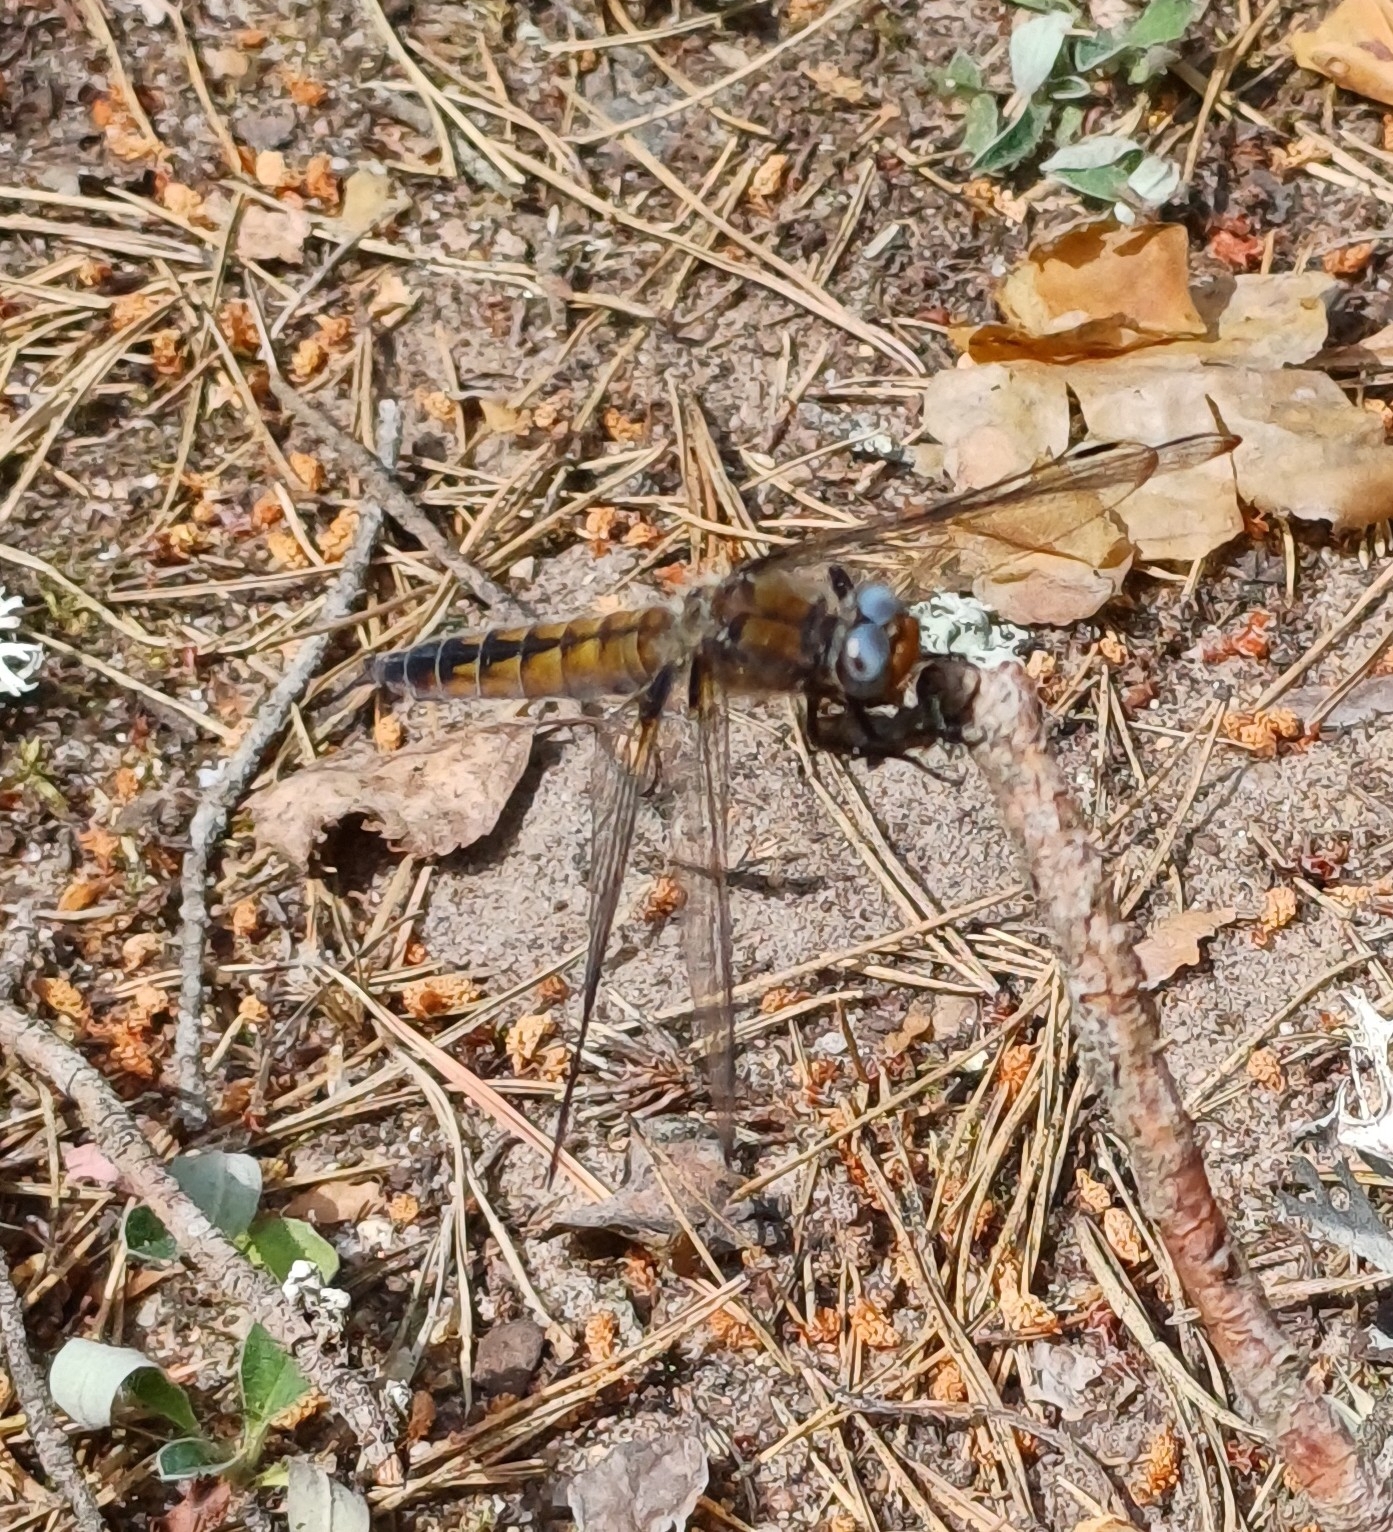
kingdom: Animalia
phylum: Arthropoda
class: Insecta
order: Odonata
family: Libellulidae
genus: Libellula
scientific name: Libellula fulva
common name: Blue chaser
